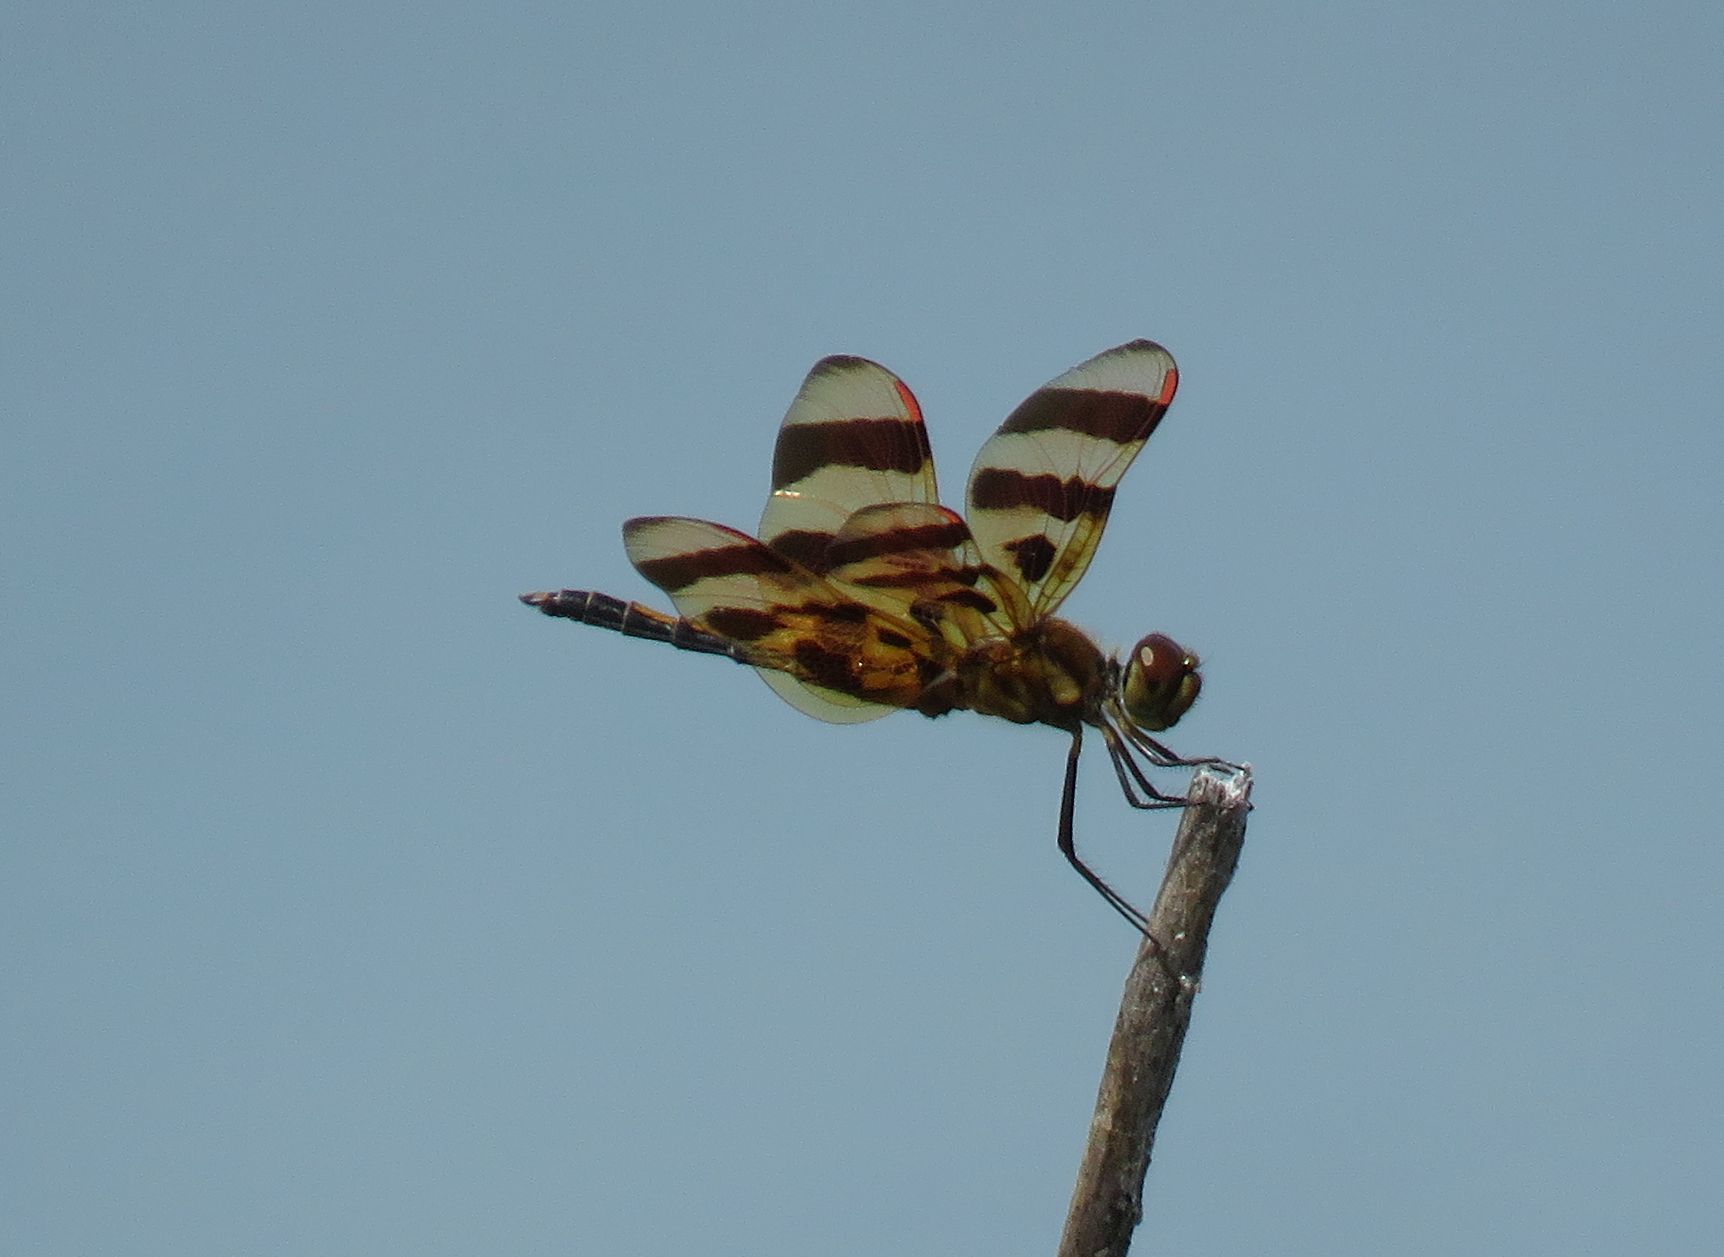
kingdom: Animalia
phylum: Arthropoda
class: Insecta
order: Odonata
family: Libellulidae
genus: Celithemis
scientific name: Celithemis eponina
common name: Halloween pennant
